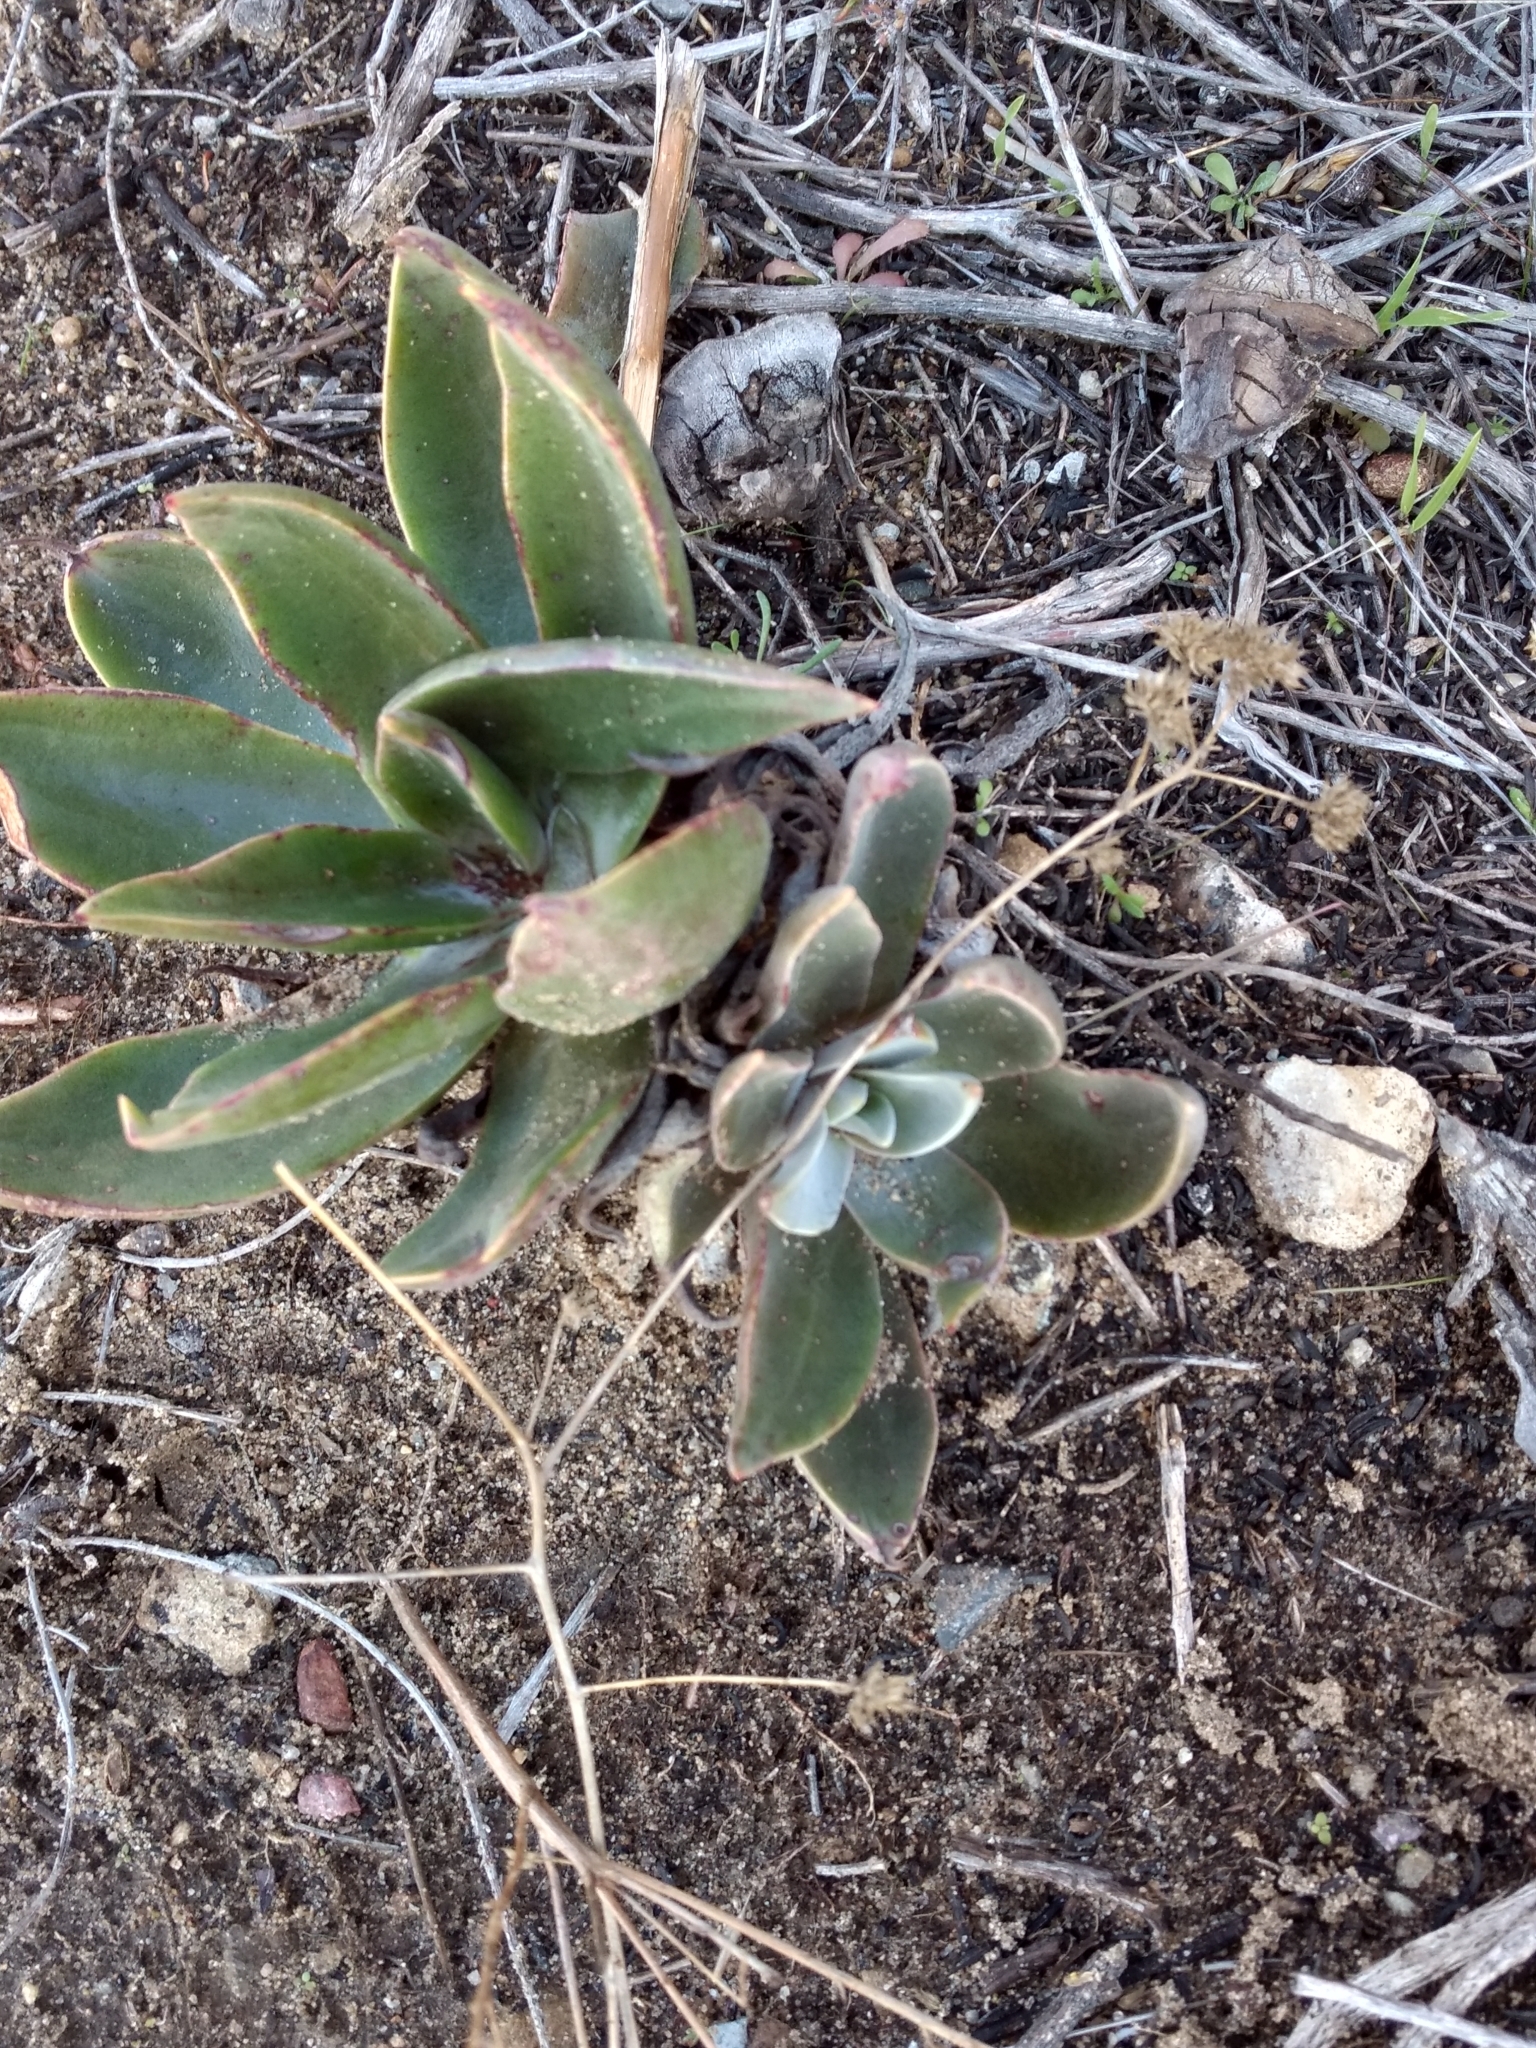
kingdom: Plantae
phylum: Tracheophyta
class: Magnoliopsida
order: Saxifragales
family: Crassulaceae
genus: Dudleya
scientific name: Dudleya lanceolata
